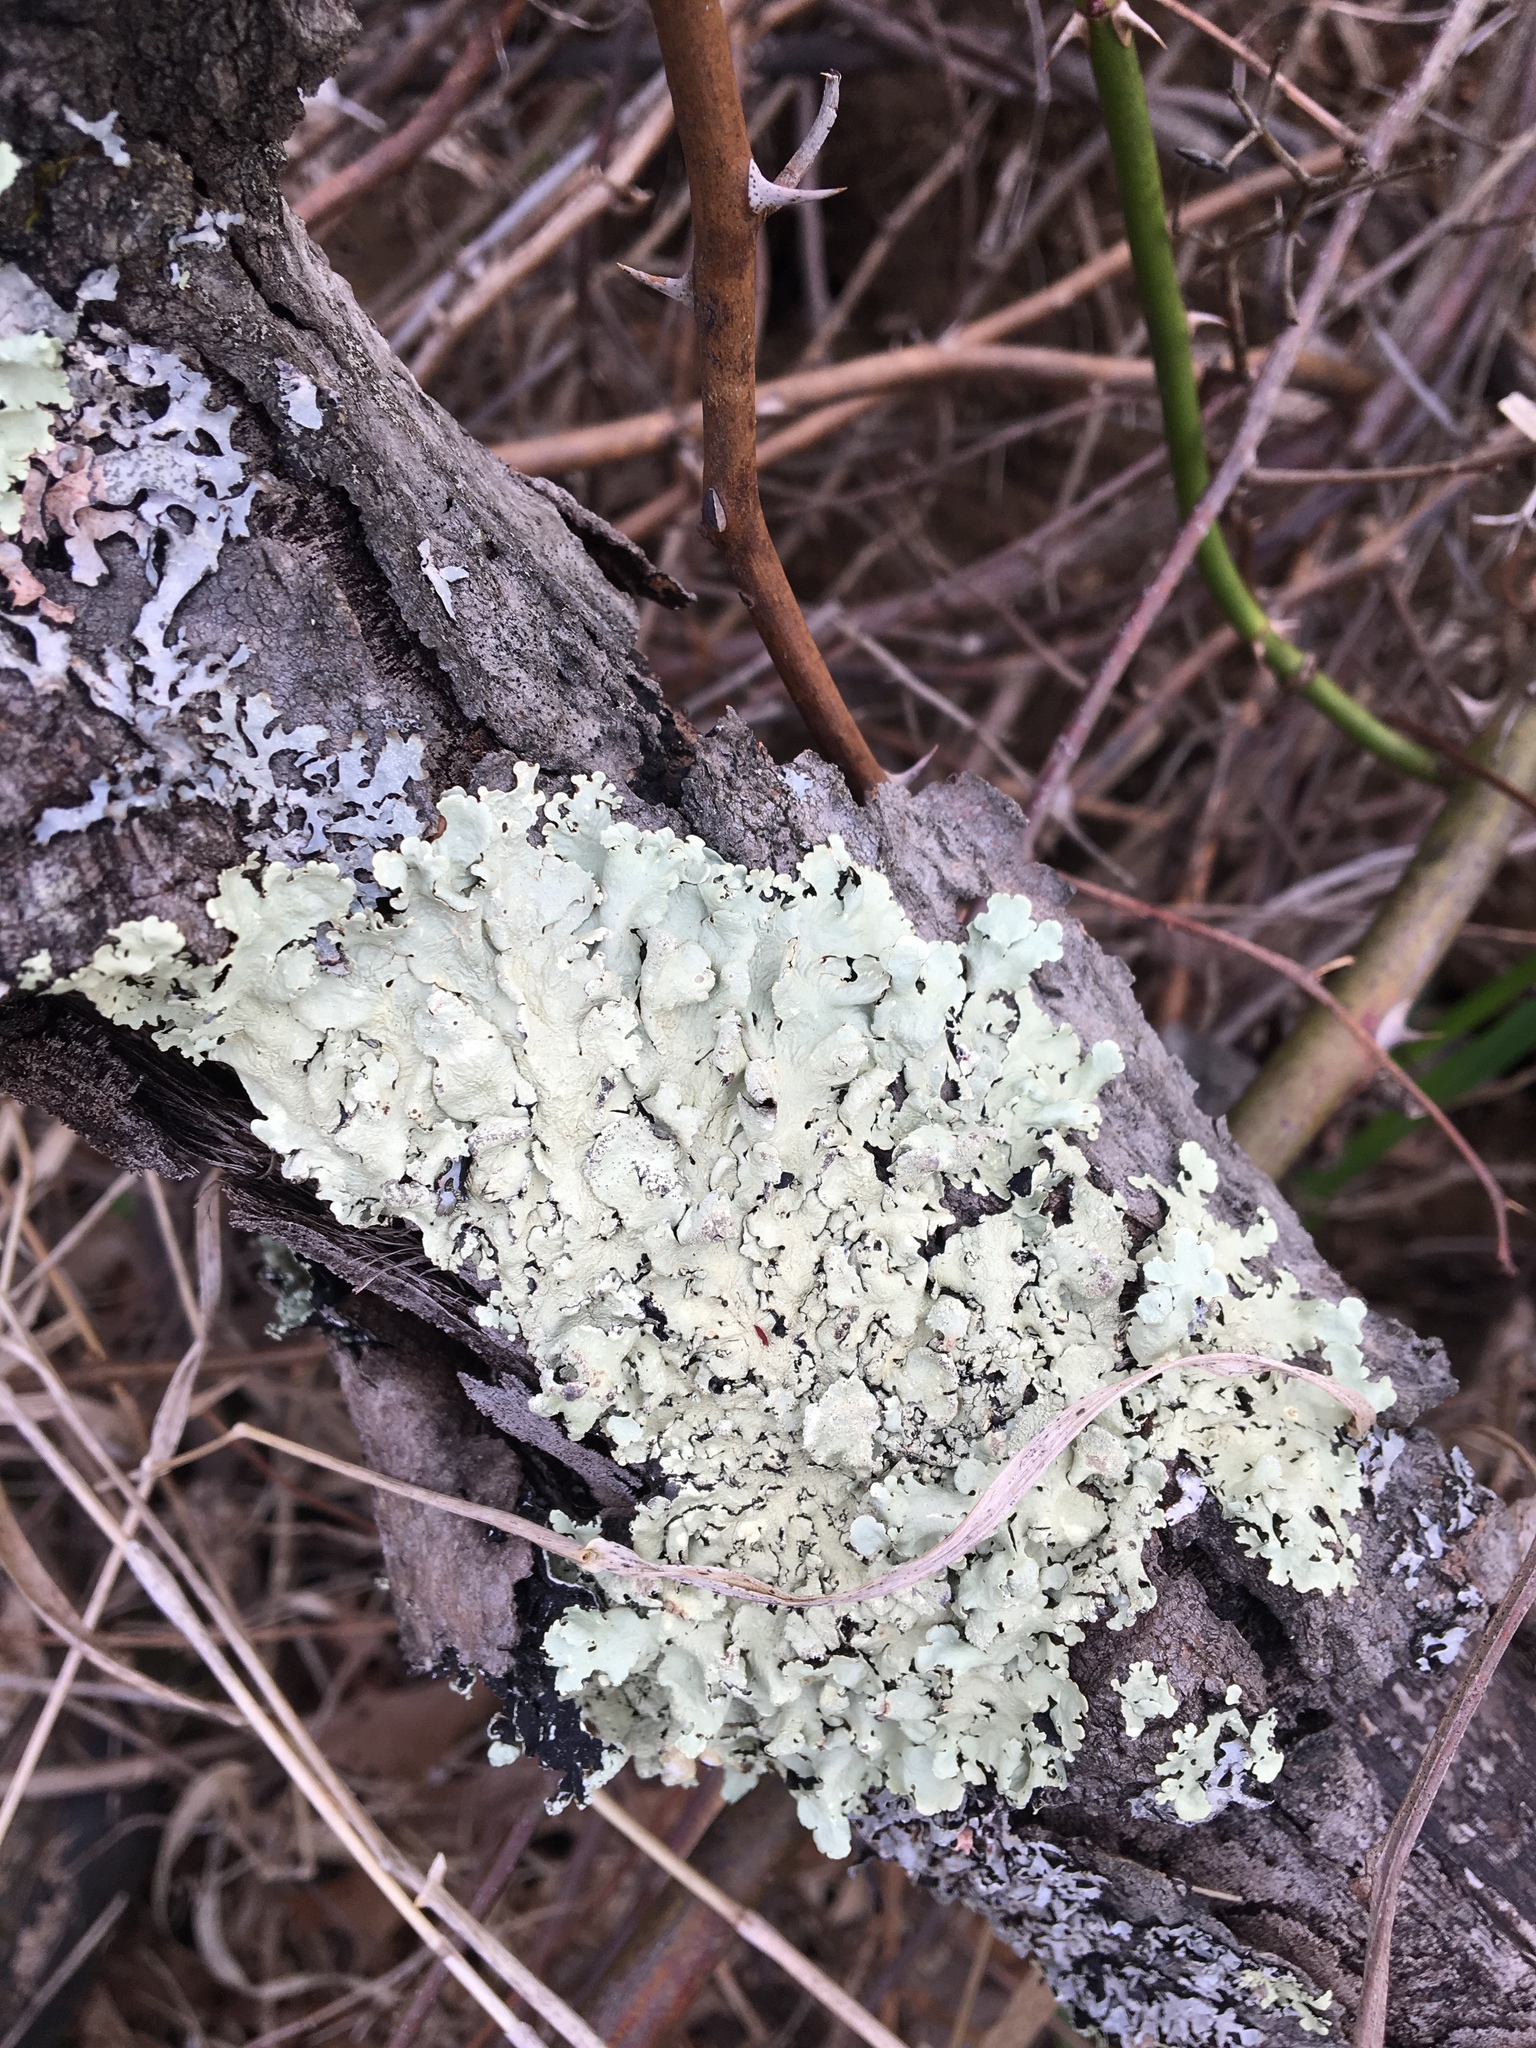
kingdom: Fungi
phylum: Ascomycota
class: Lecanoromycetes
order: Lecanorales
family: Parmeliaceae
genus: Flavoparmelia
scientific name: Flavoparmelia caperata
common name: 40-mile per hour lichen
